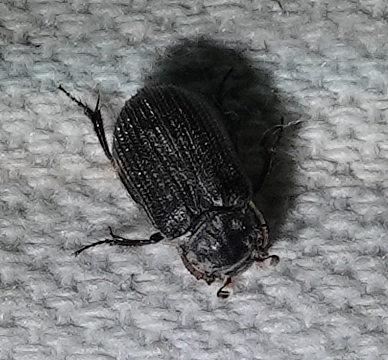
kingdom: Animalia
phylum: Arthropoda
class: Insecta
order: Coleoptera
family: Trogidae
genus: Trox
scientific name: Trox atrox
